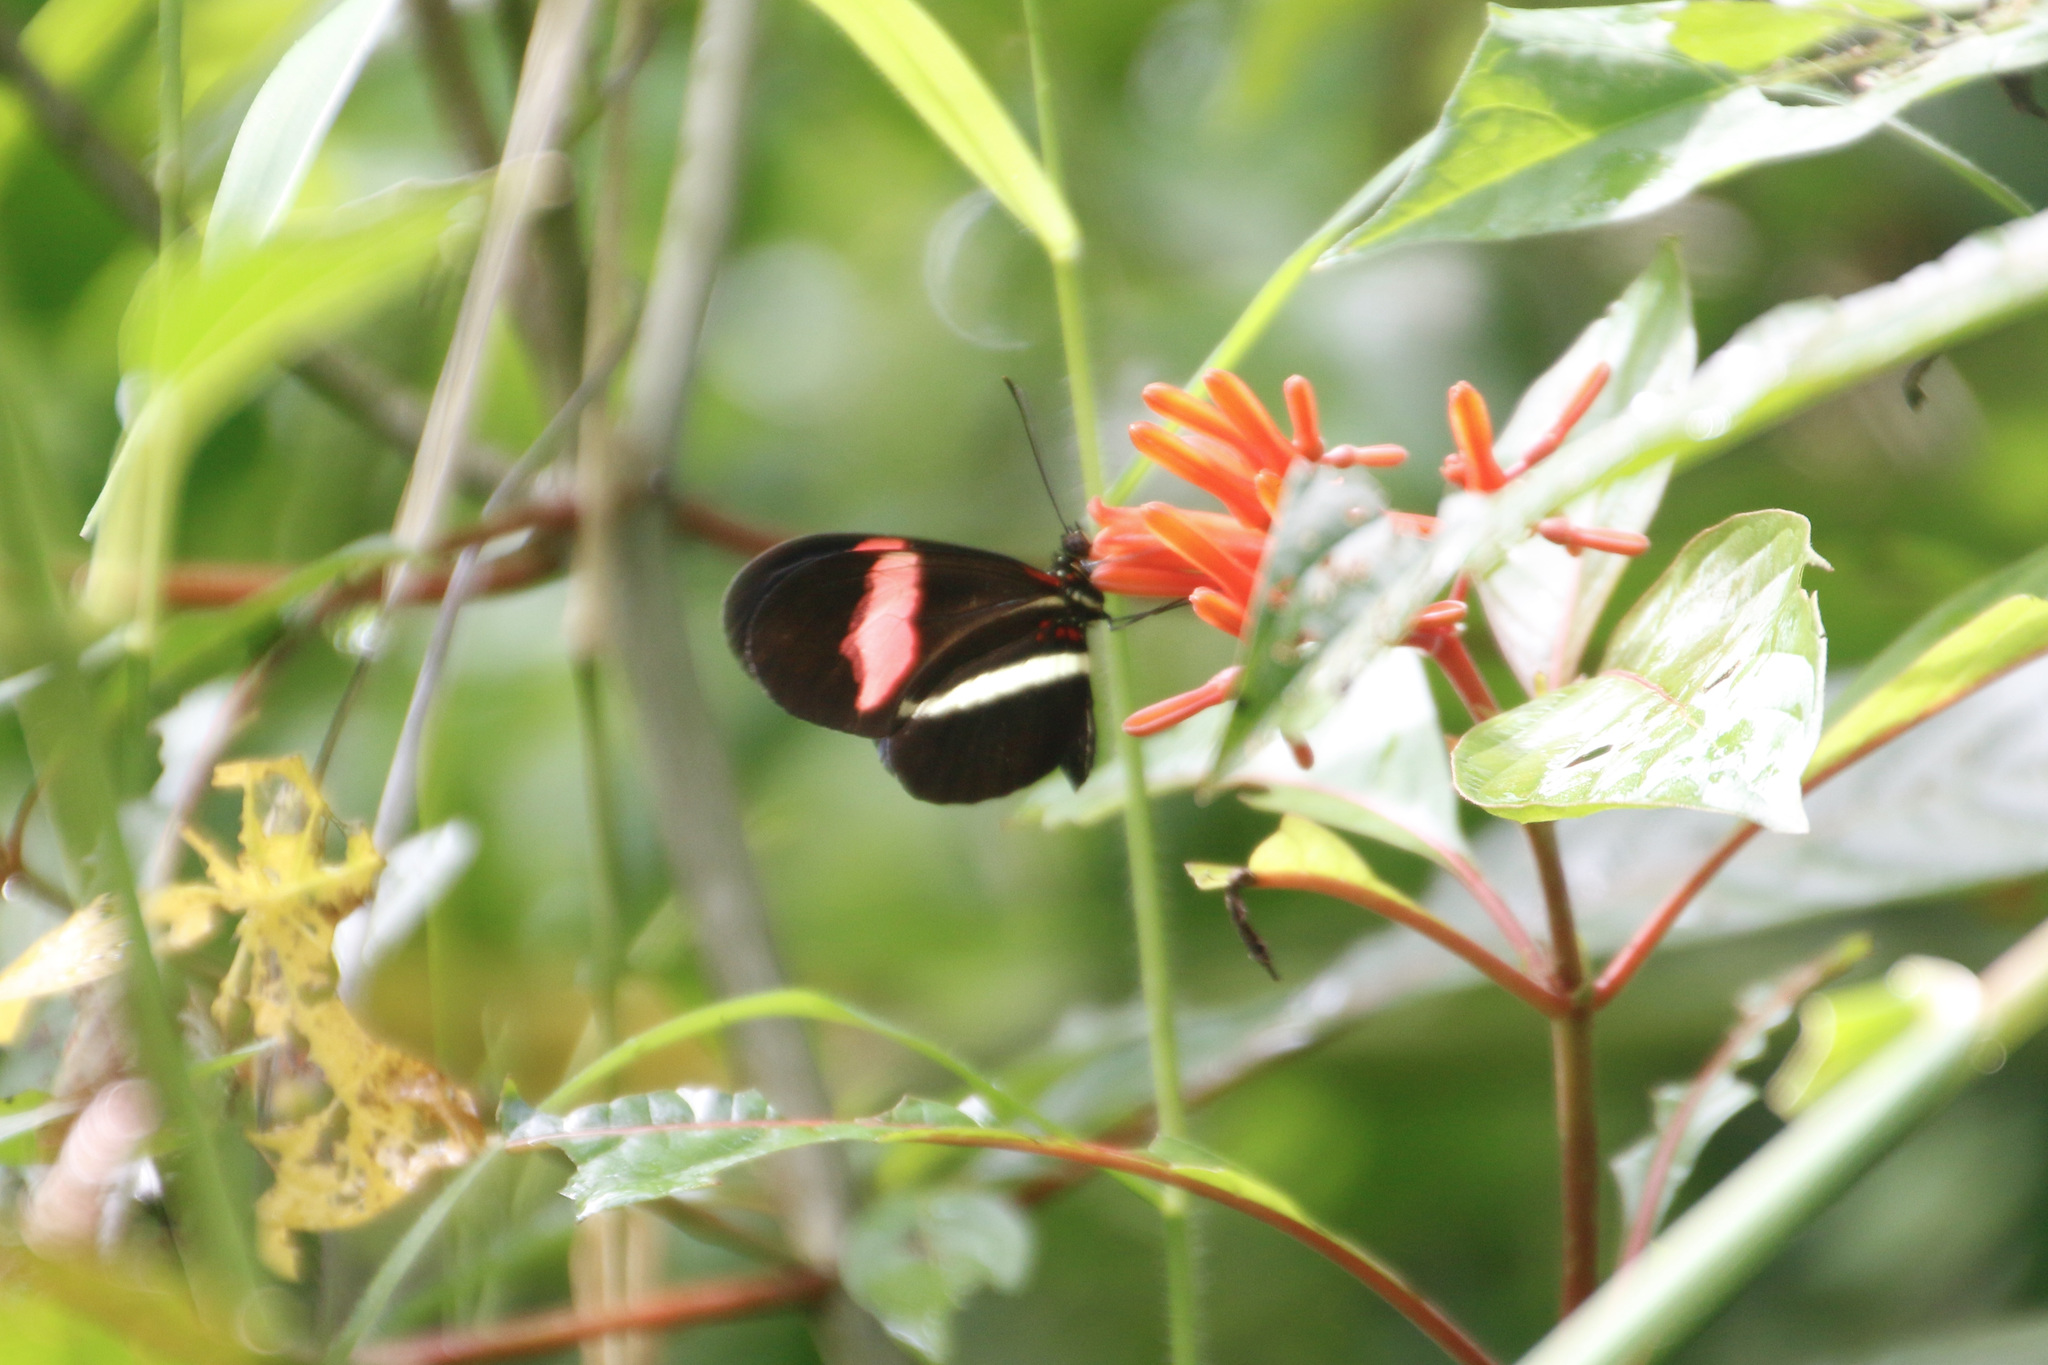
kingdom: Animalia
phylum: Arthropoda
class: Insecta
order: Lepidoptera
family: Nymphalidae
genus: Heliconius
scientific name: Heliconius erato
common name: Common patch longwing
